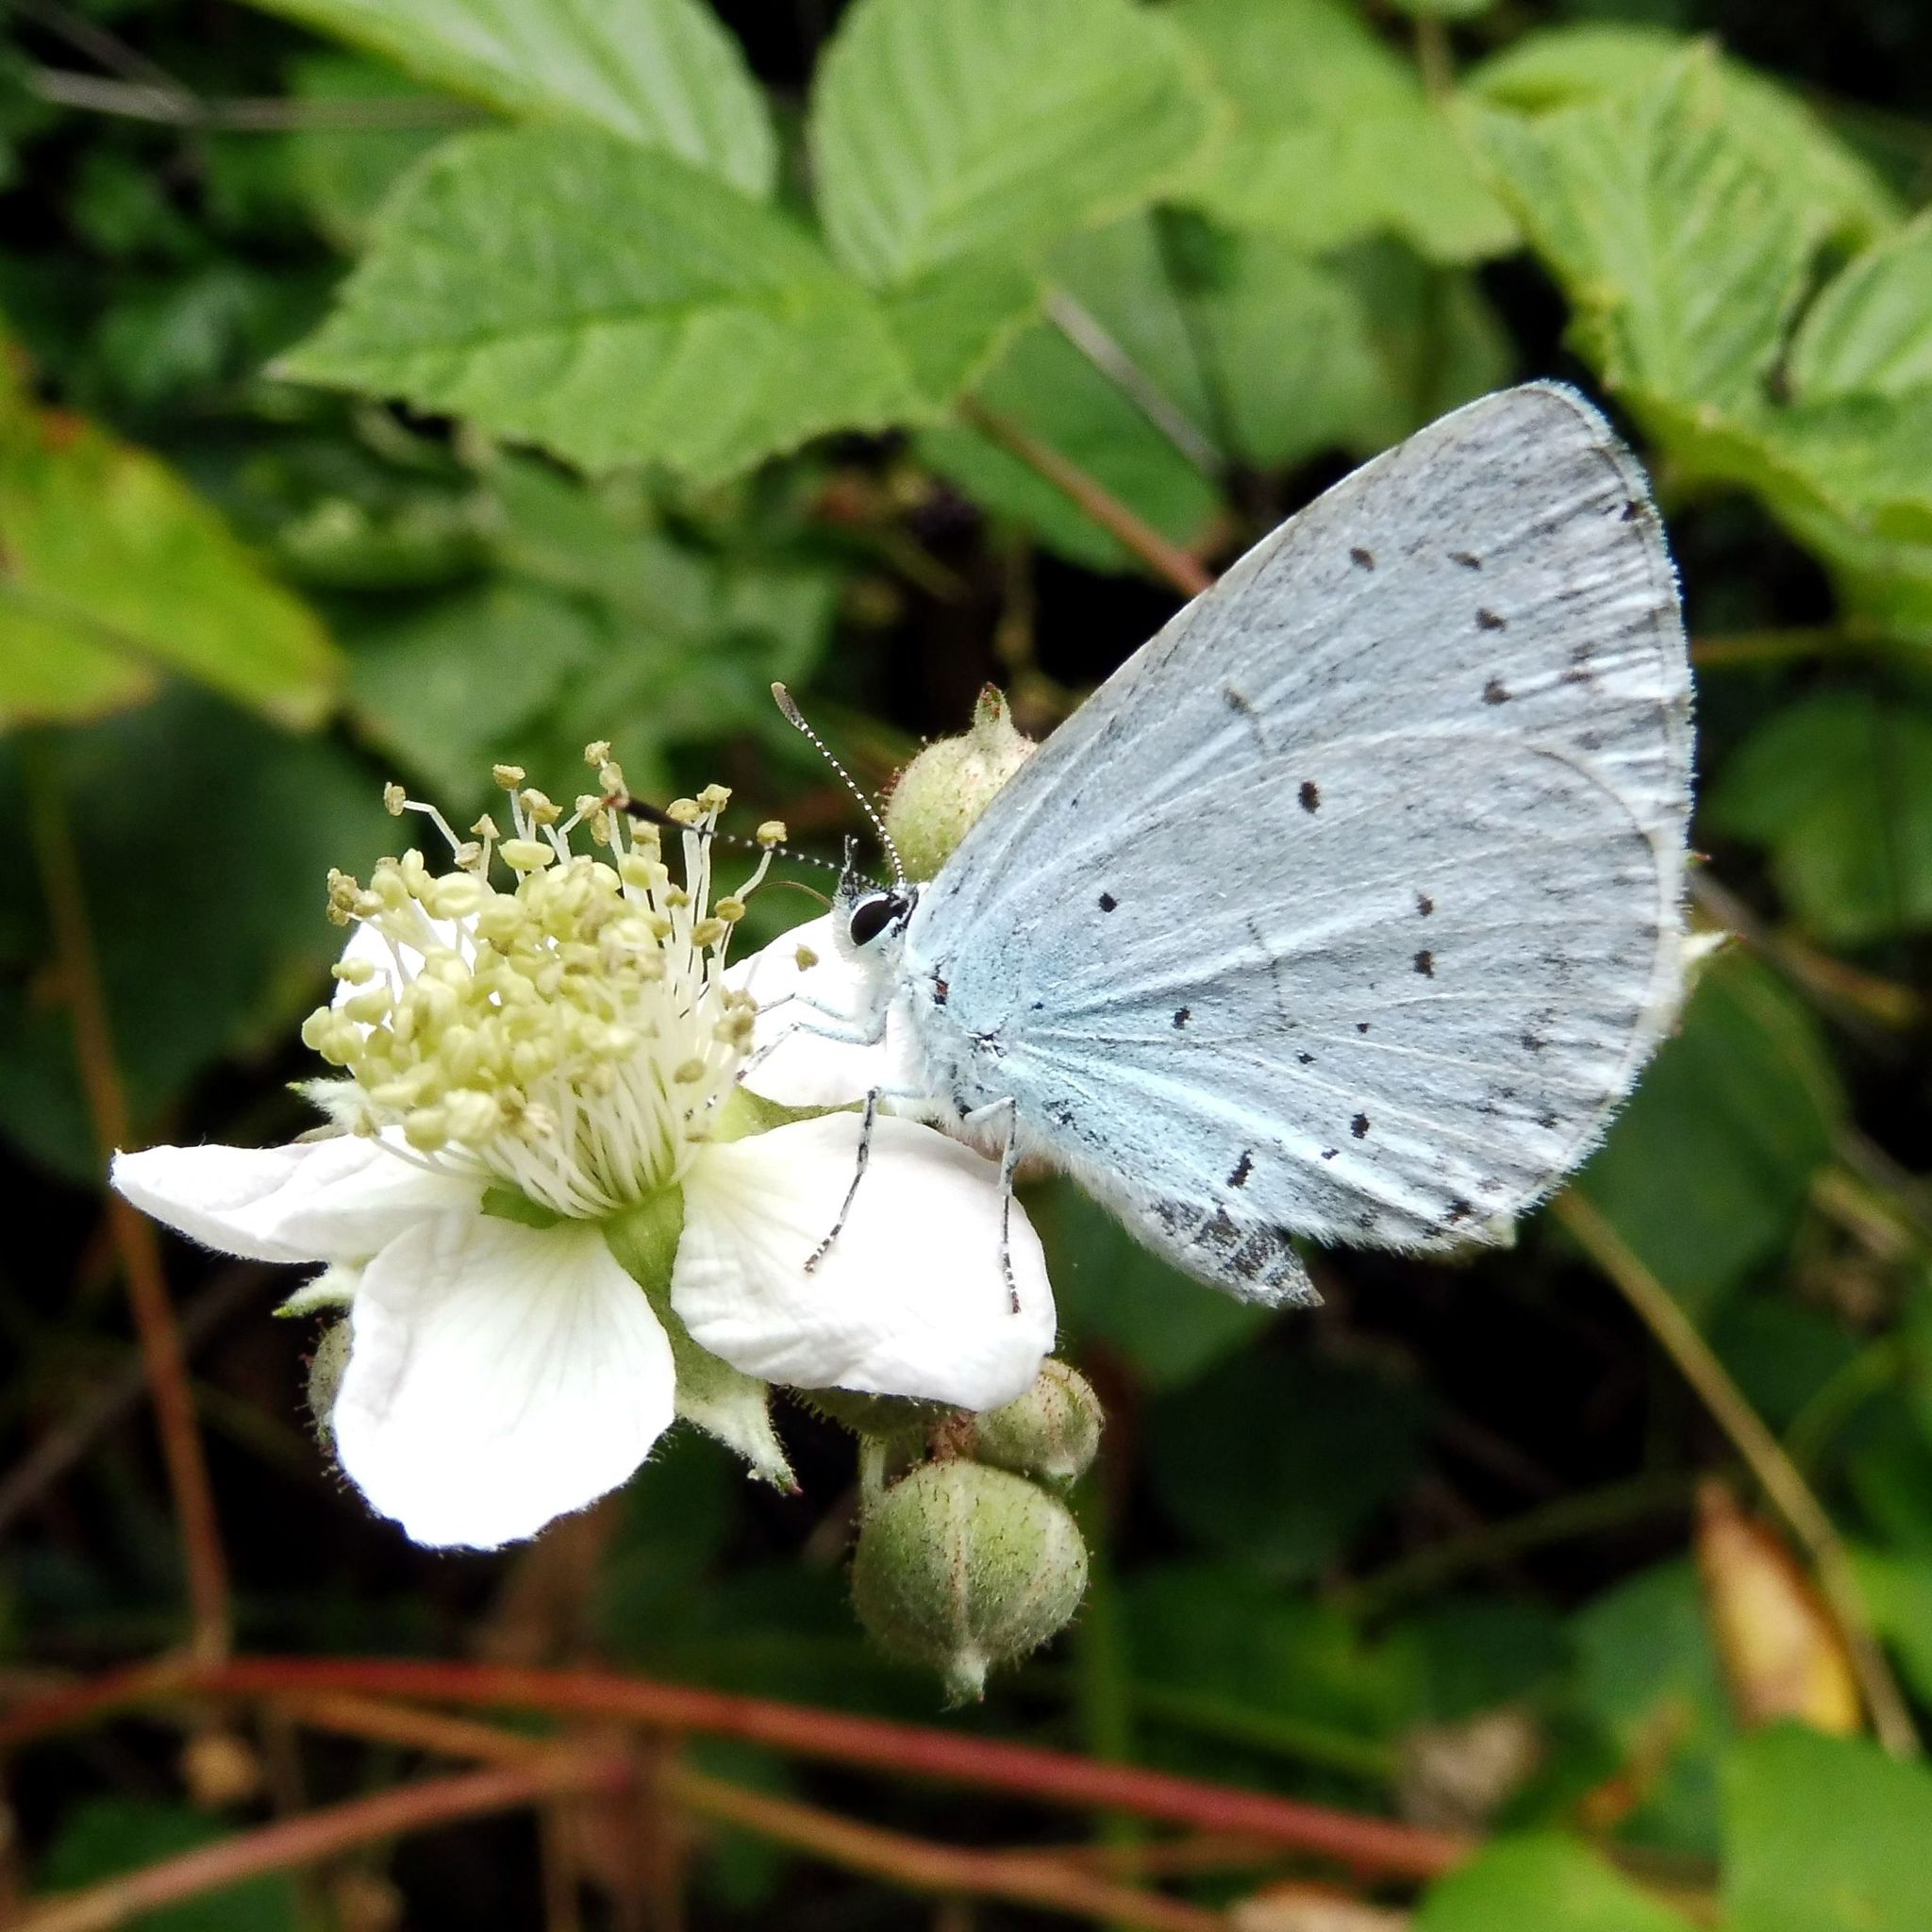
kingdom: Animalia
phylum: Arthropoda
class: Insecta
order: Lepidoptera
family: Lycaenidae
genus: Celastrina
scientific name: Celastrina argiolus
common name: Holly blue
